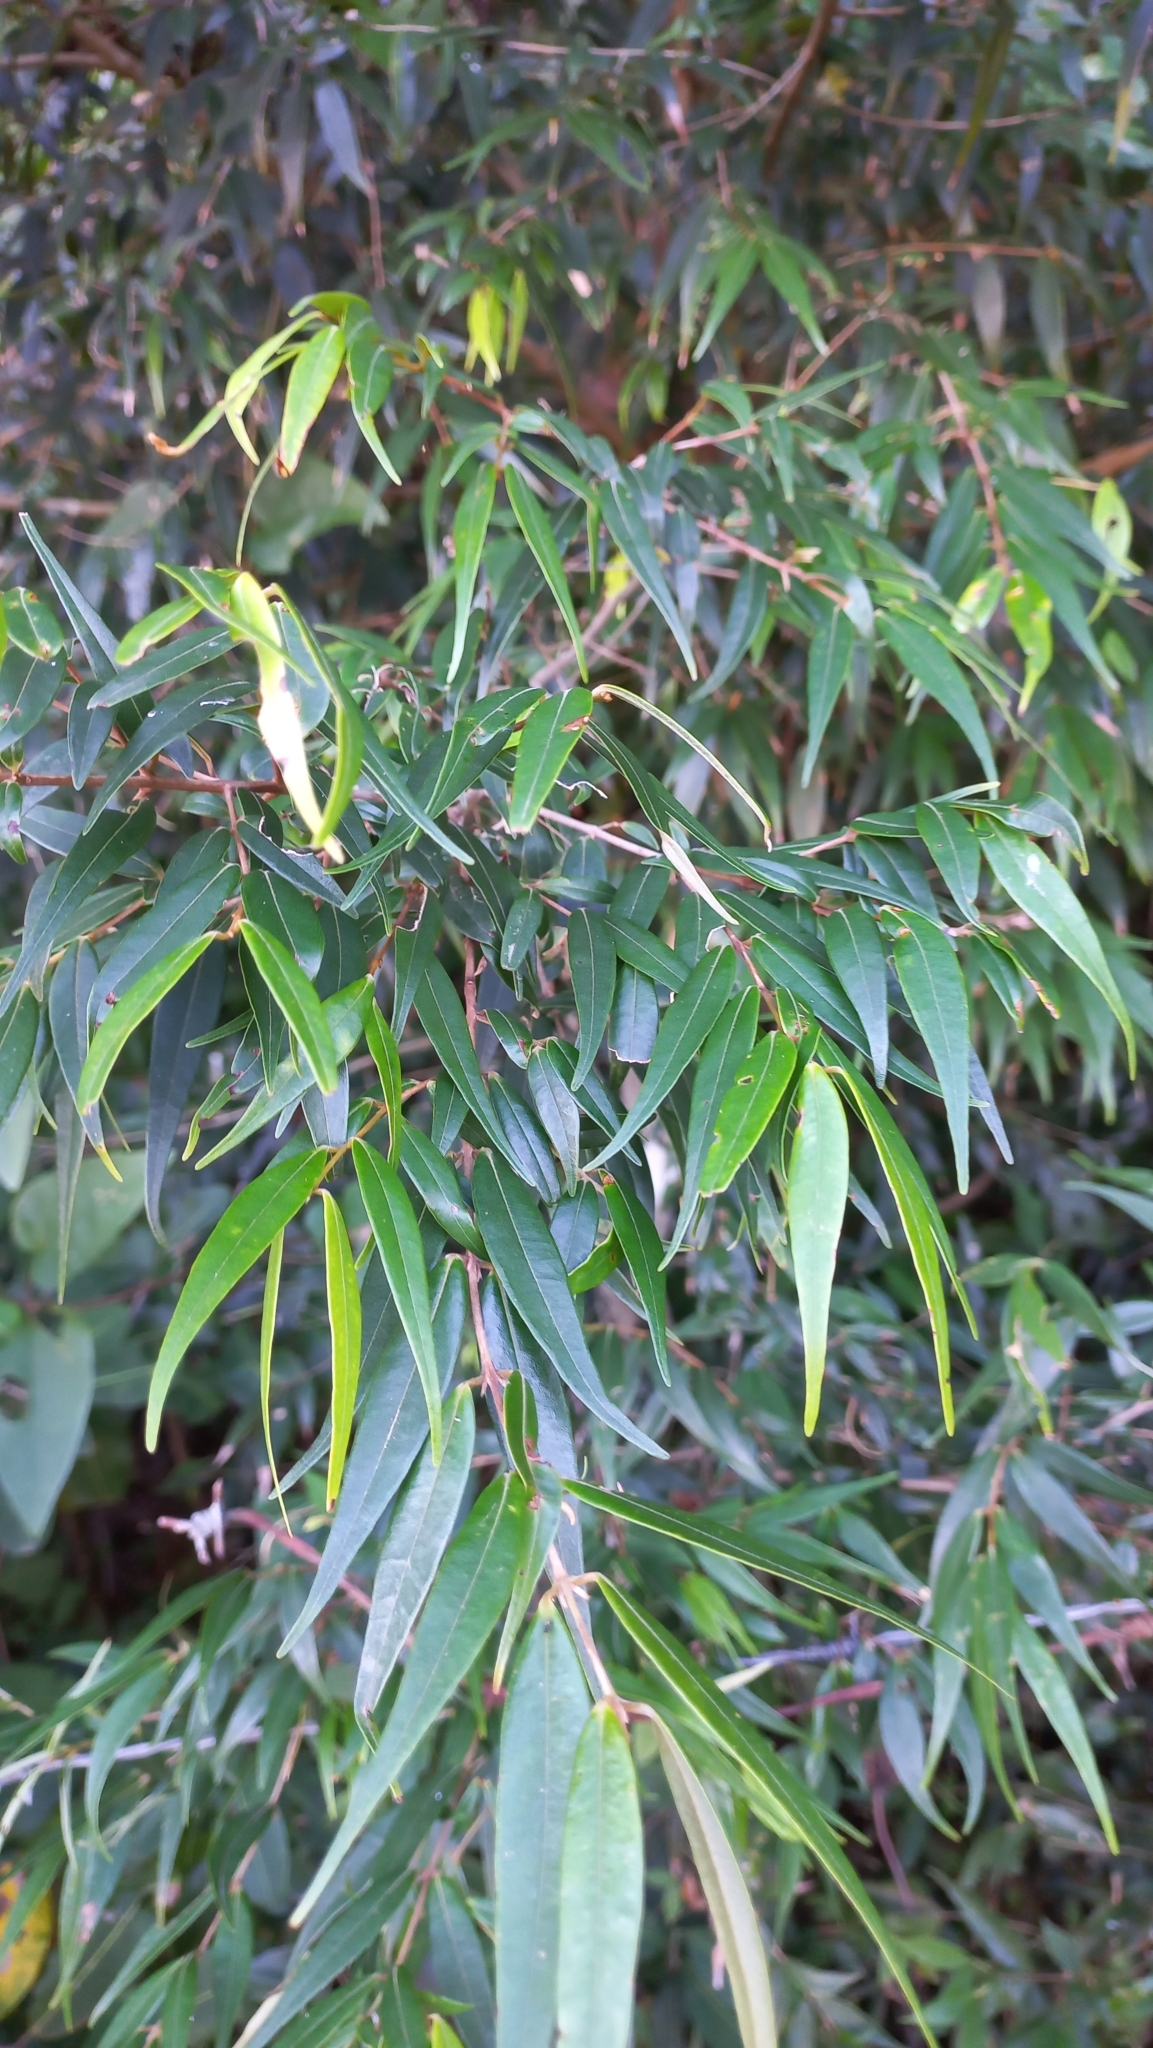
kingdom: Plantae
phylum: Tracheophyta
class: Magnoliopsida
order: Myrtales
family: Myrtaceae
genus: Myrcia
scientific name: Myrcia splendens
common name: Surinam cherry
